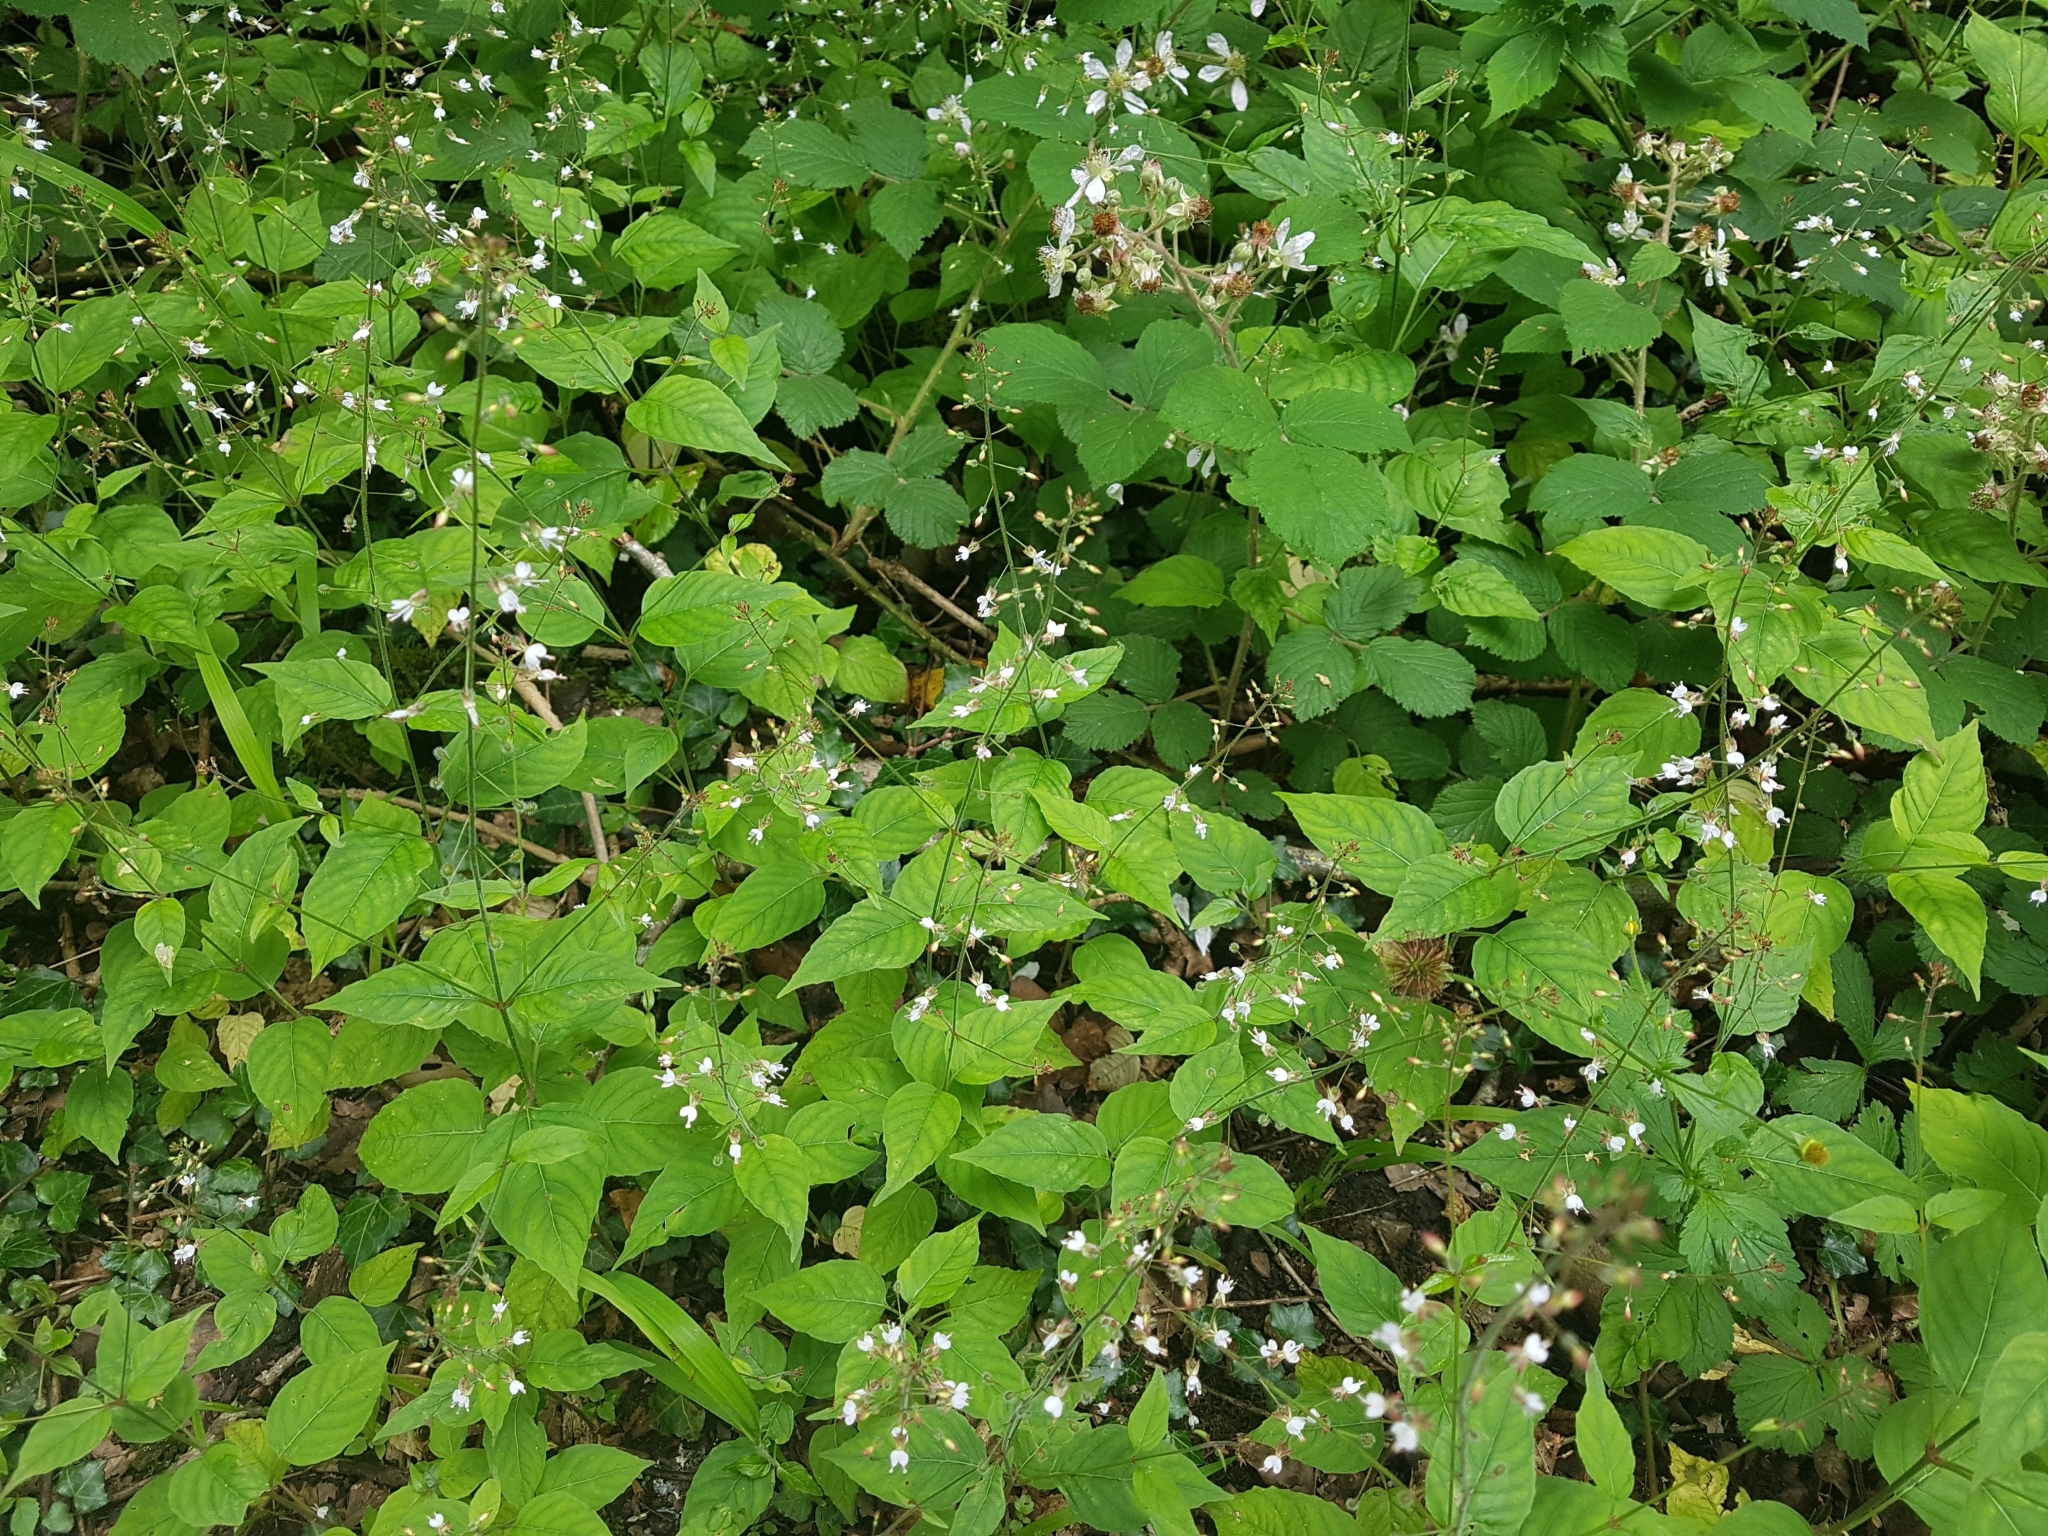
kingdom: Plantae
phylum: Tracheophyta
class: Magnoliopsida
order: Myrtales
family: Onagraceae
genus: Circaea
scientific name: Circaea lutetiana
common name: Enchanter's-nightshade
